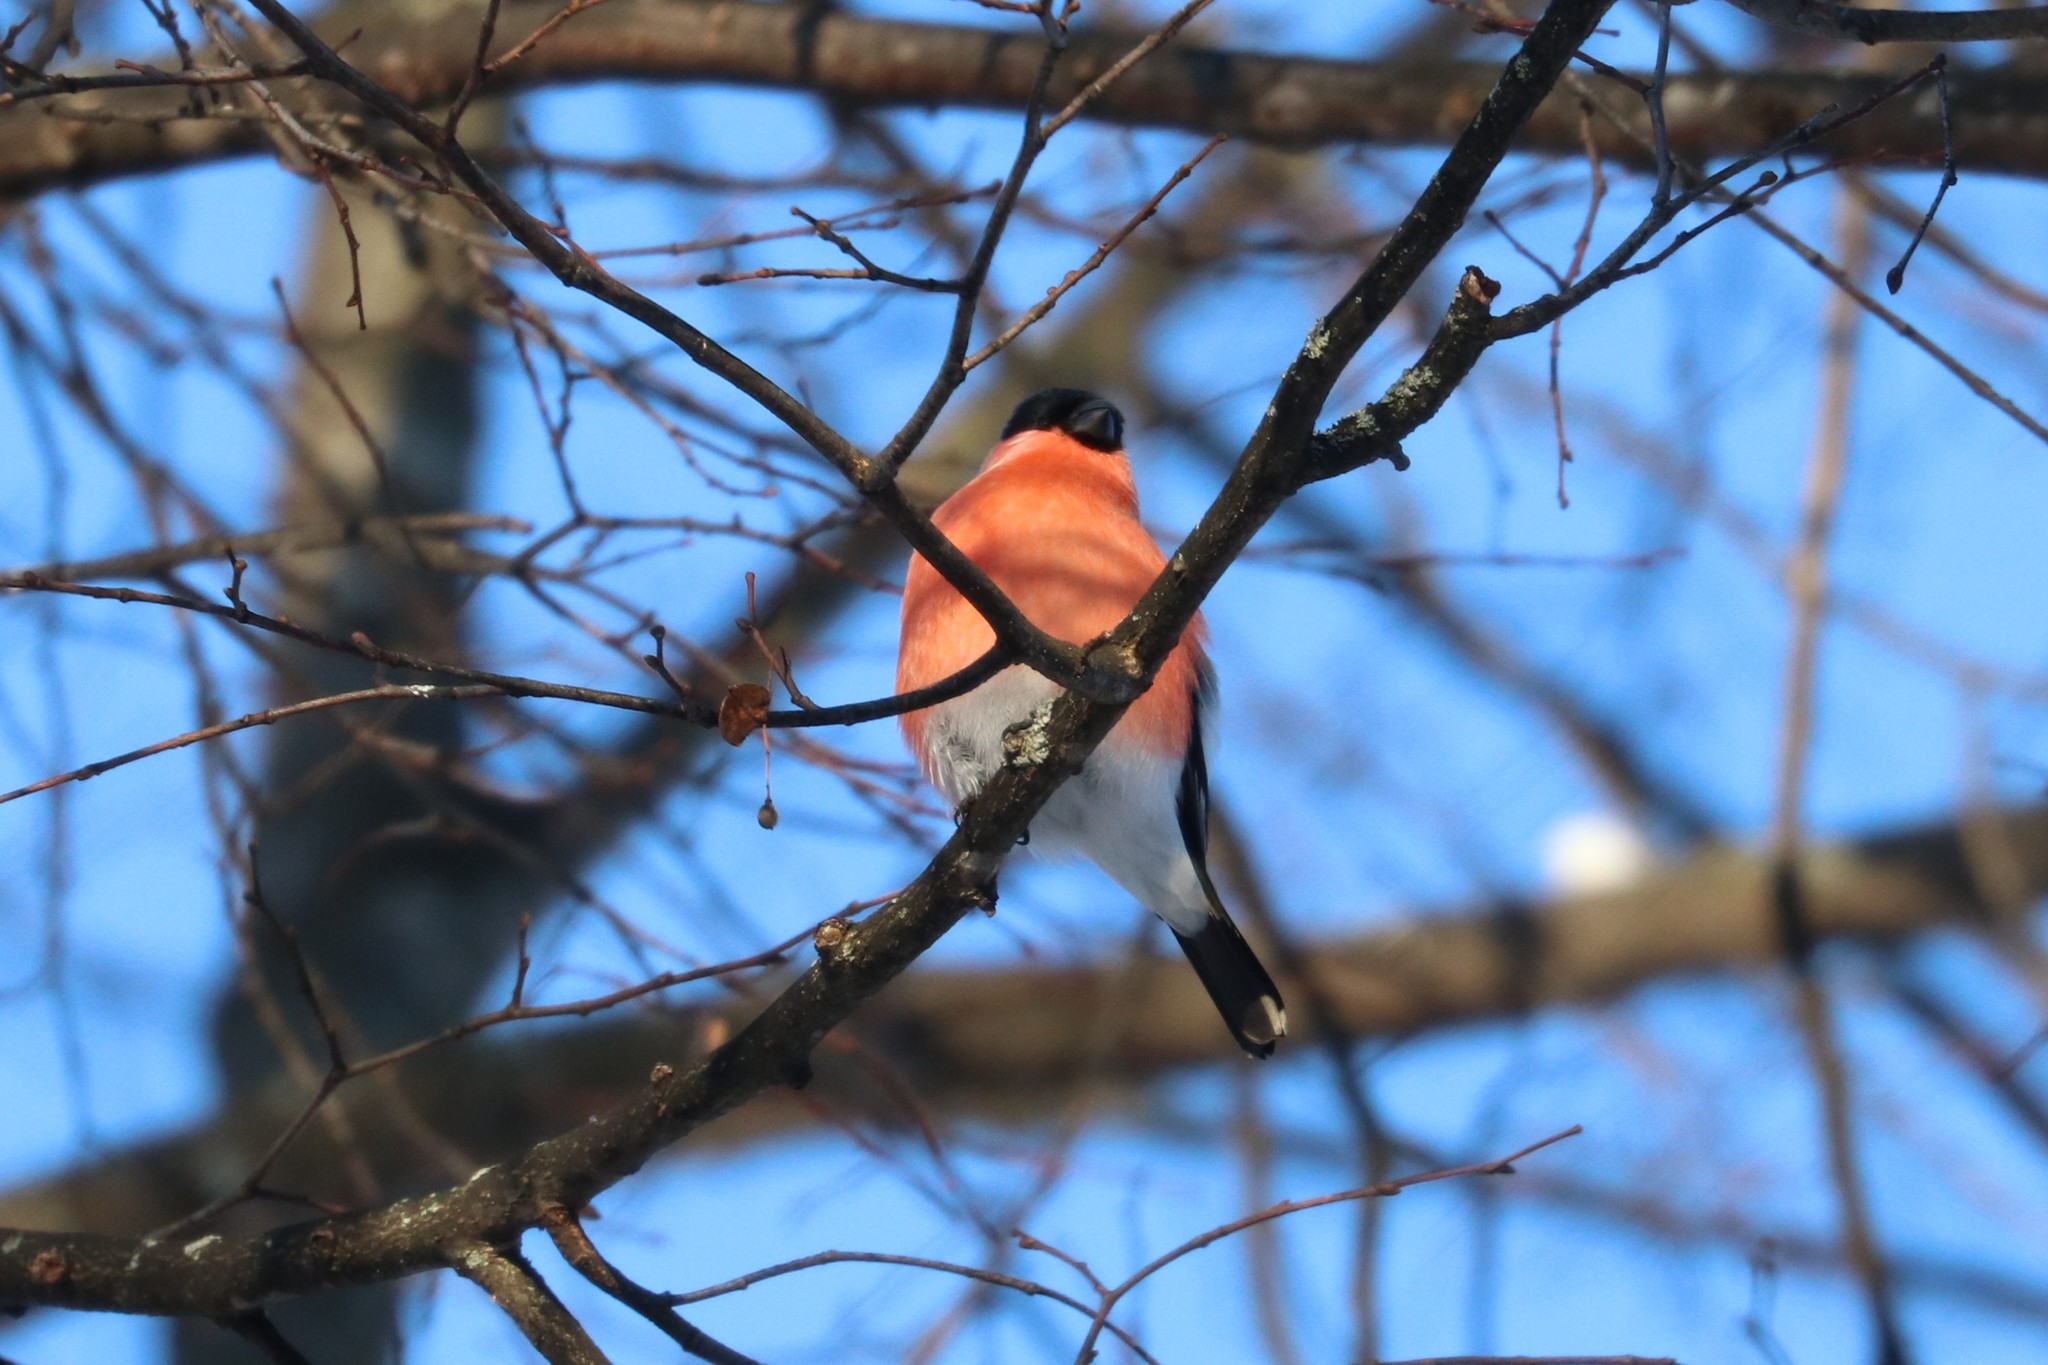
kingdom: Animalia
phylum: Chordata
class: Aves
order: Passeriformes
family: Fringillidae
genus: Pyrrhula
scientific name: Pyrrhula pyrrhula
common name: Eurasian bullfinch
